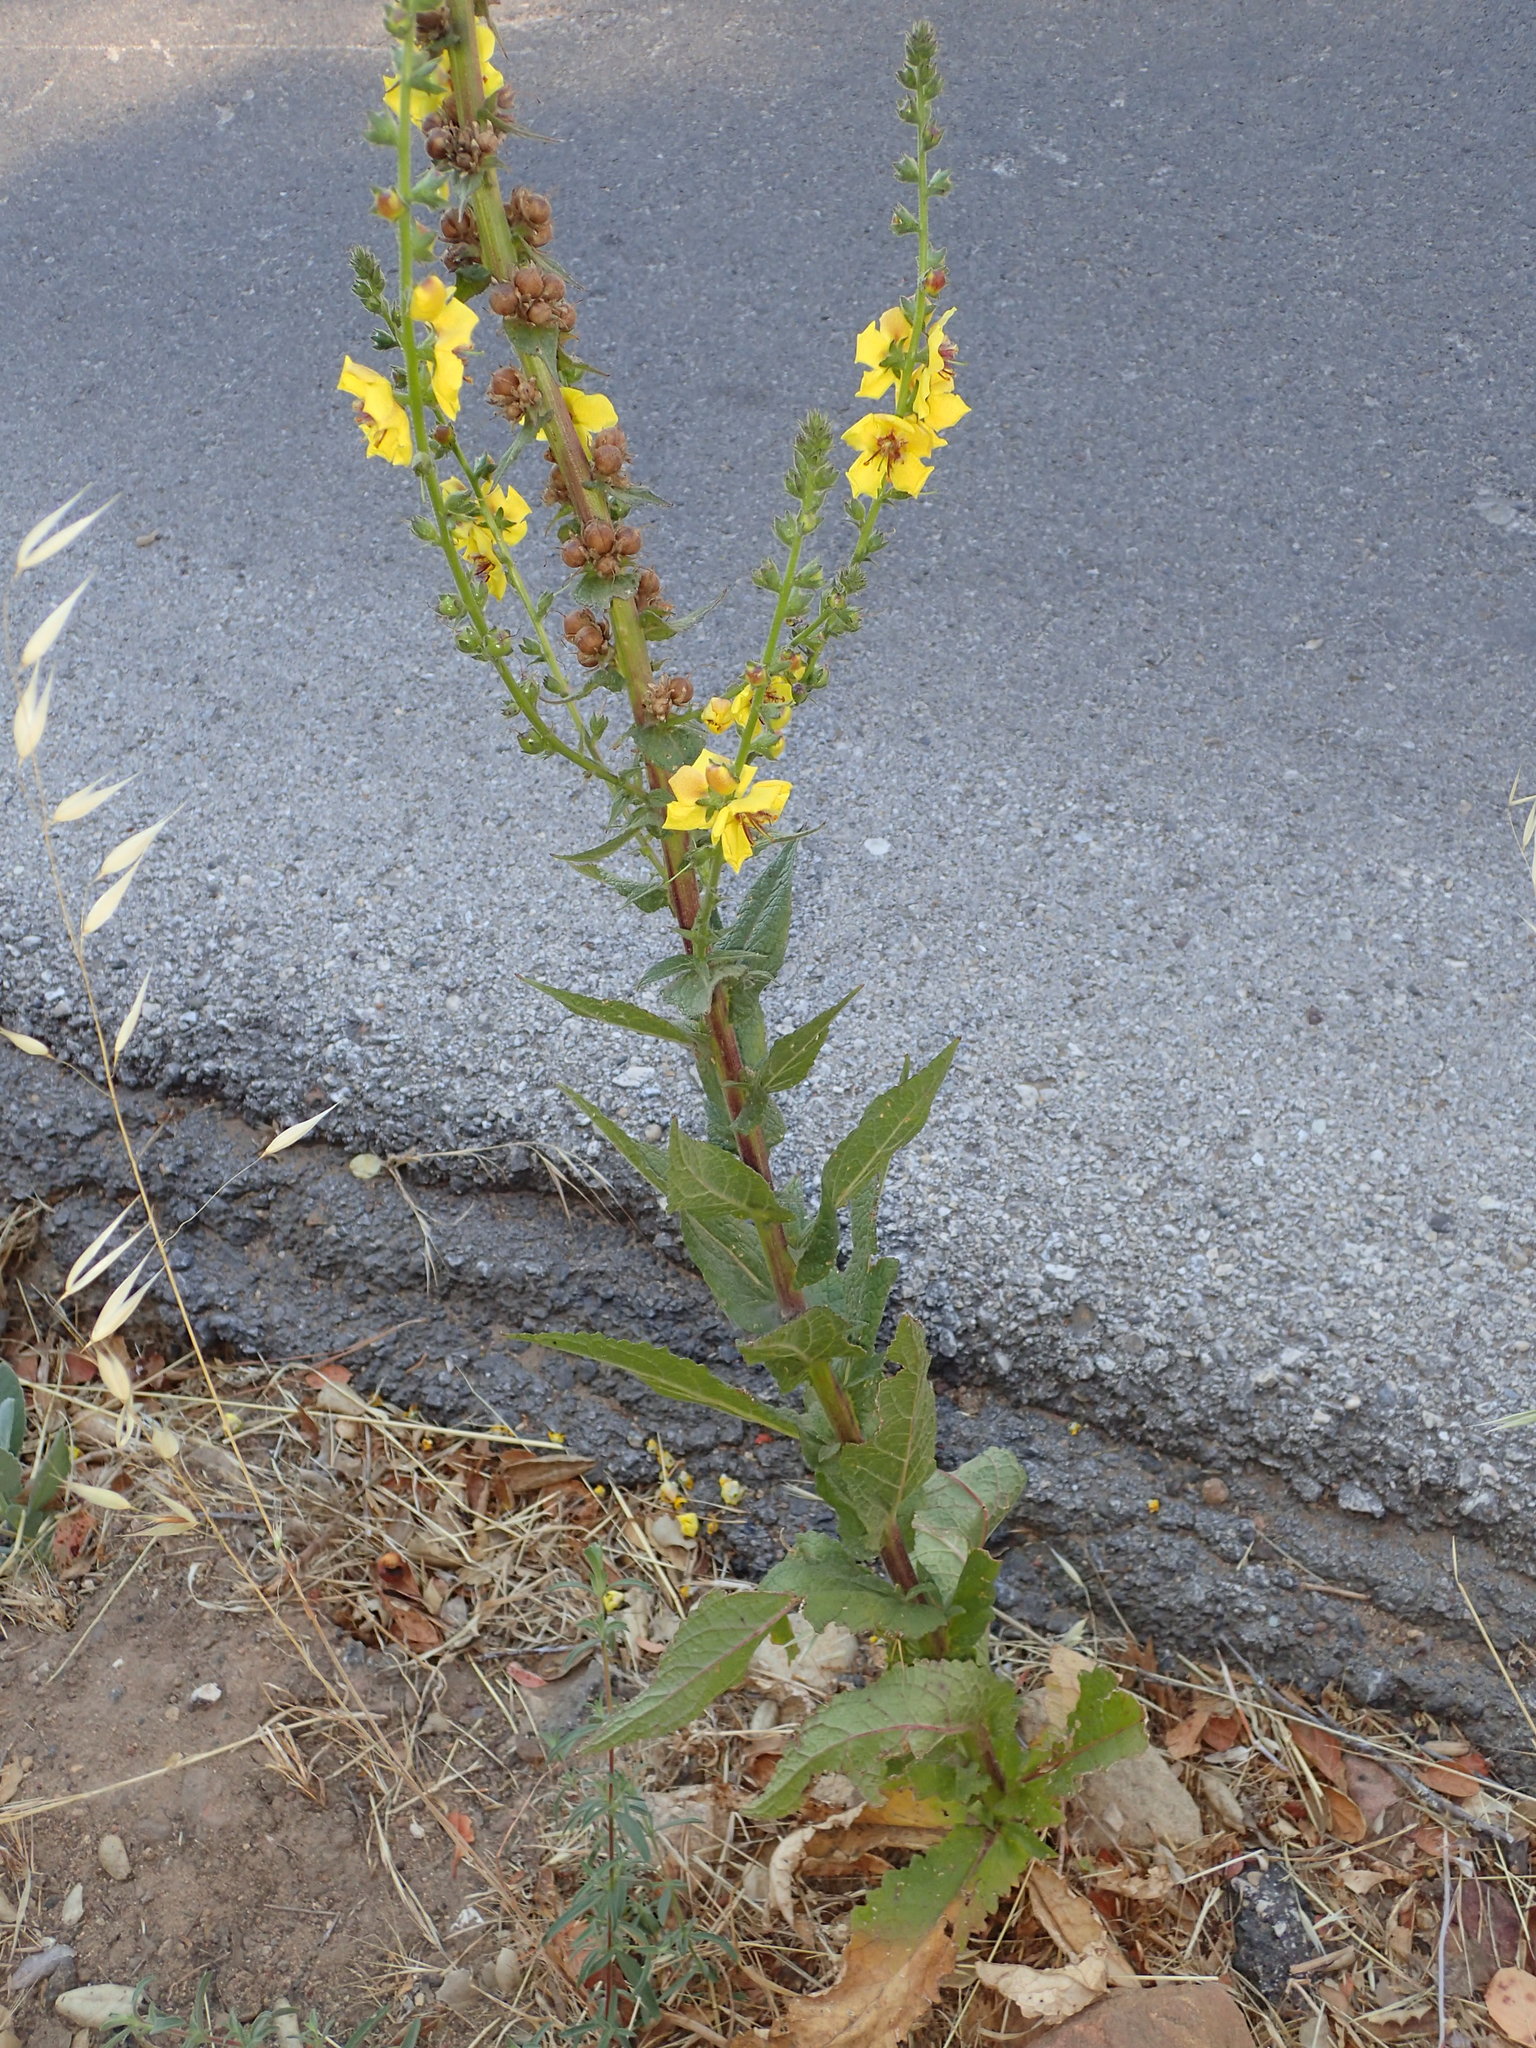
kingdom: Plantae
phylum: Tracheophyta
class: Magnoliopsida
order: Lamiales
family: Scrophulariaceae
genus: Verbascum
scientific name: Verbascum virgatum
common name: Twiggy mullein
